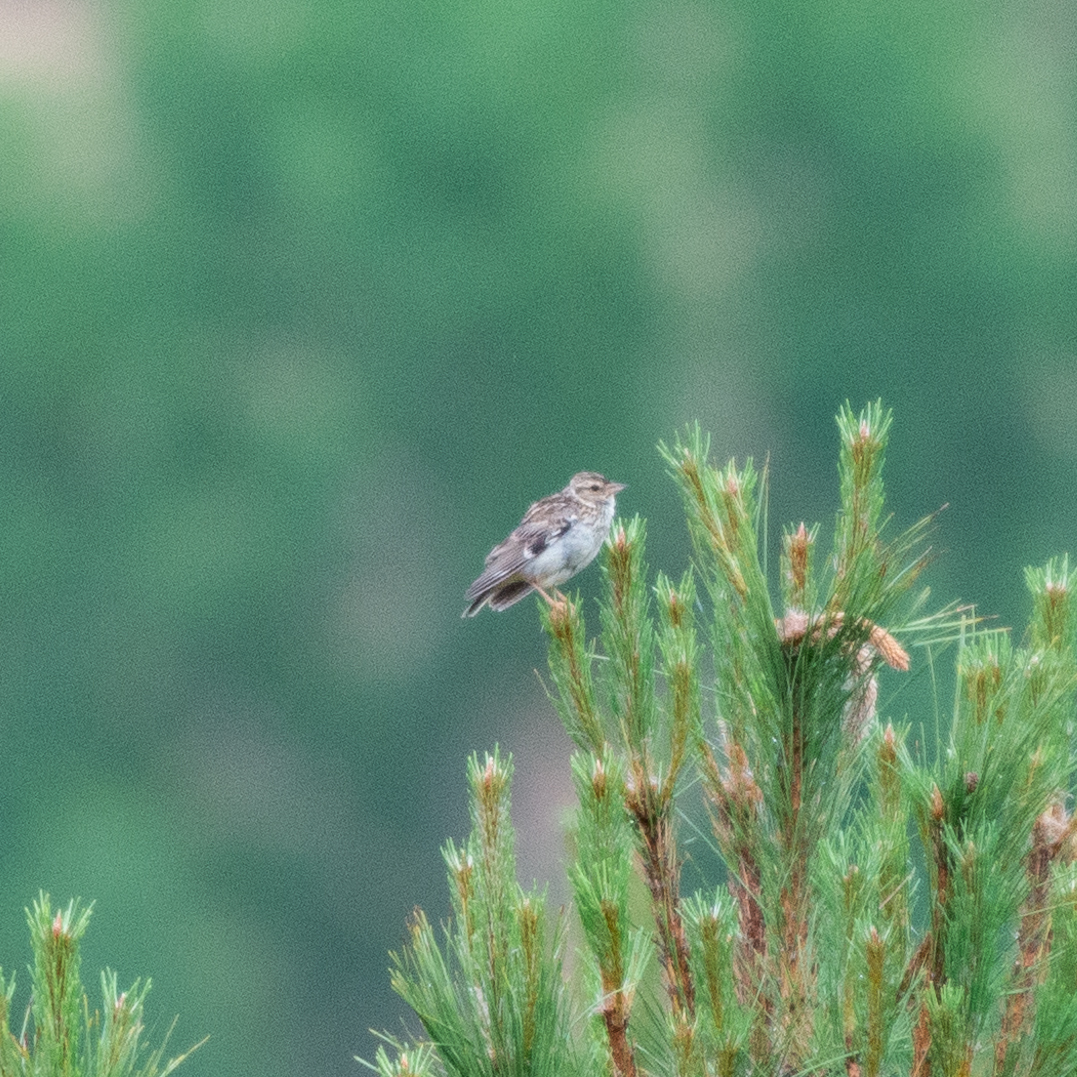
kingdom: Animalia
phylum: Chordata
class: Aves
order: Passeriformes
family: Alaudidae
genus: Lullula
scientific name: Lullula arborea
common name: Woodlark
